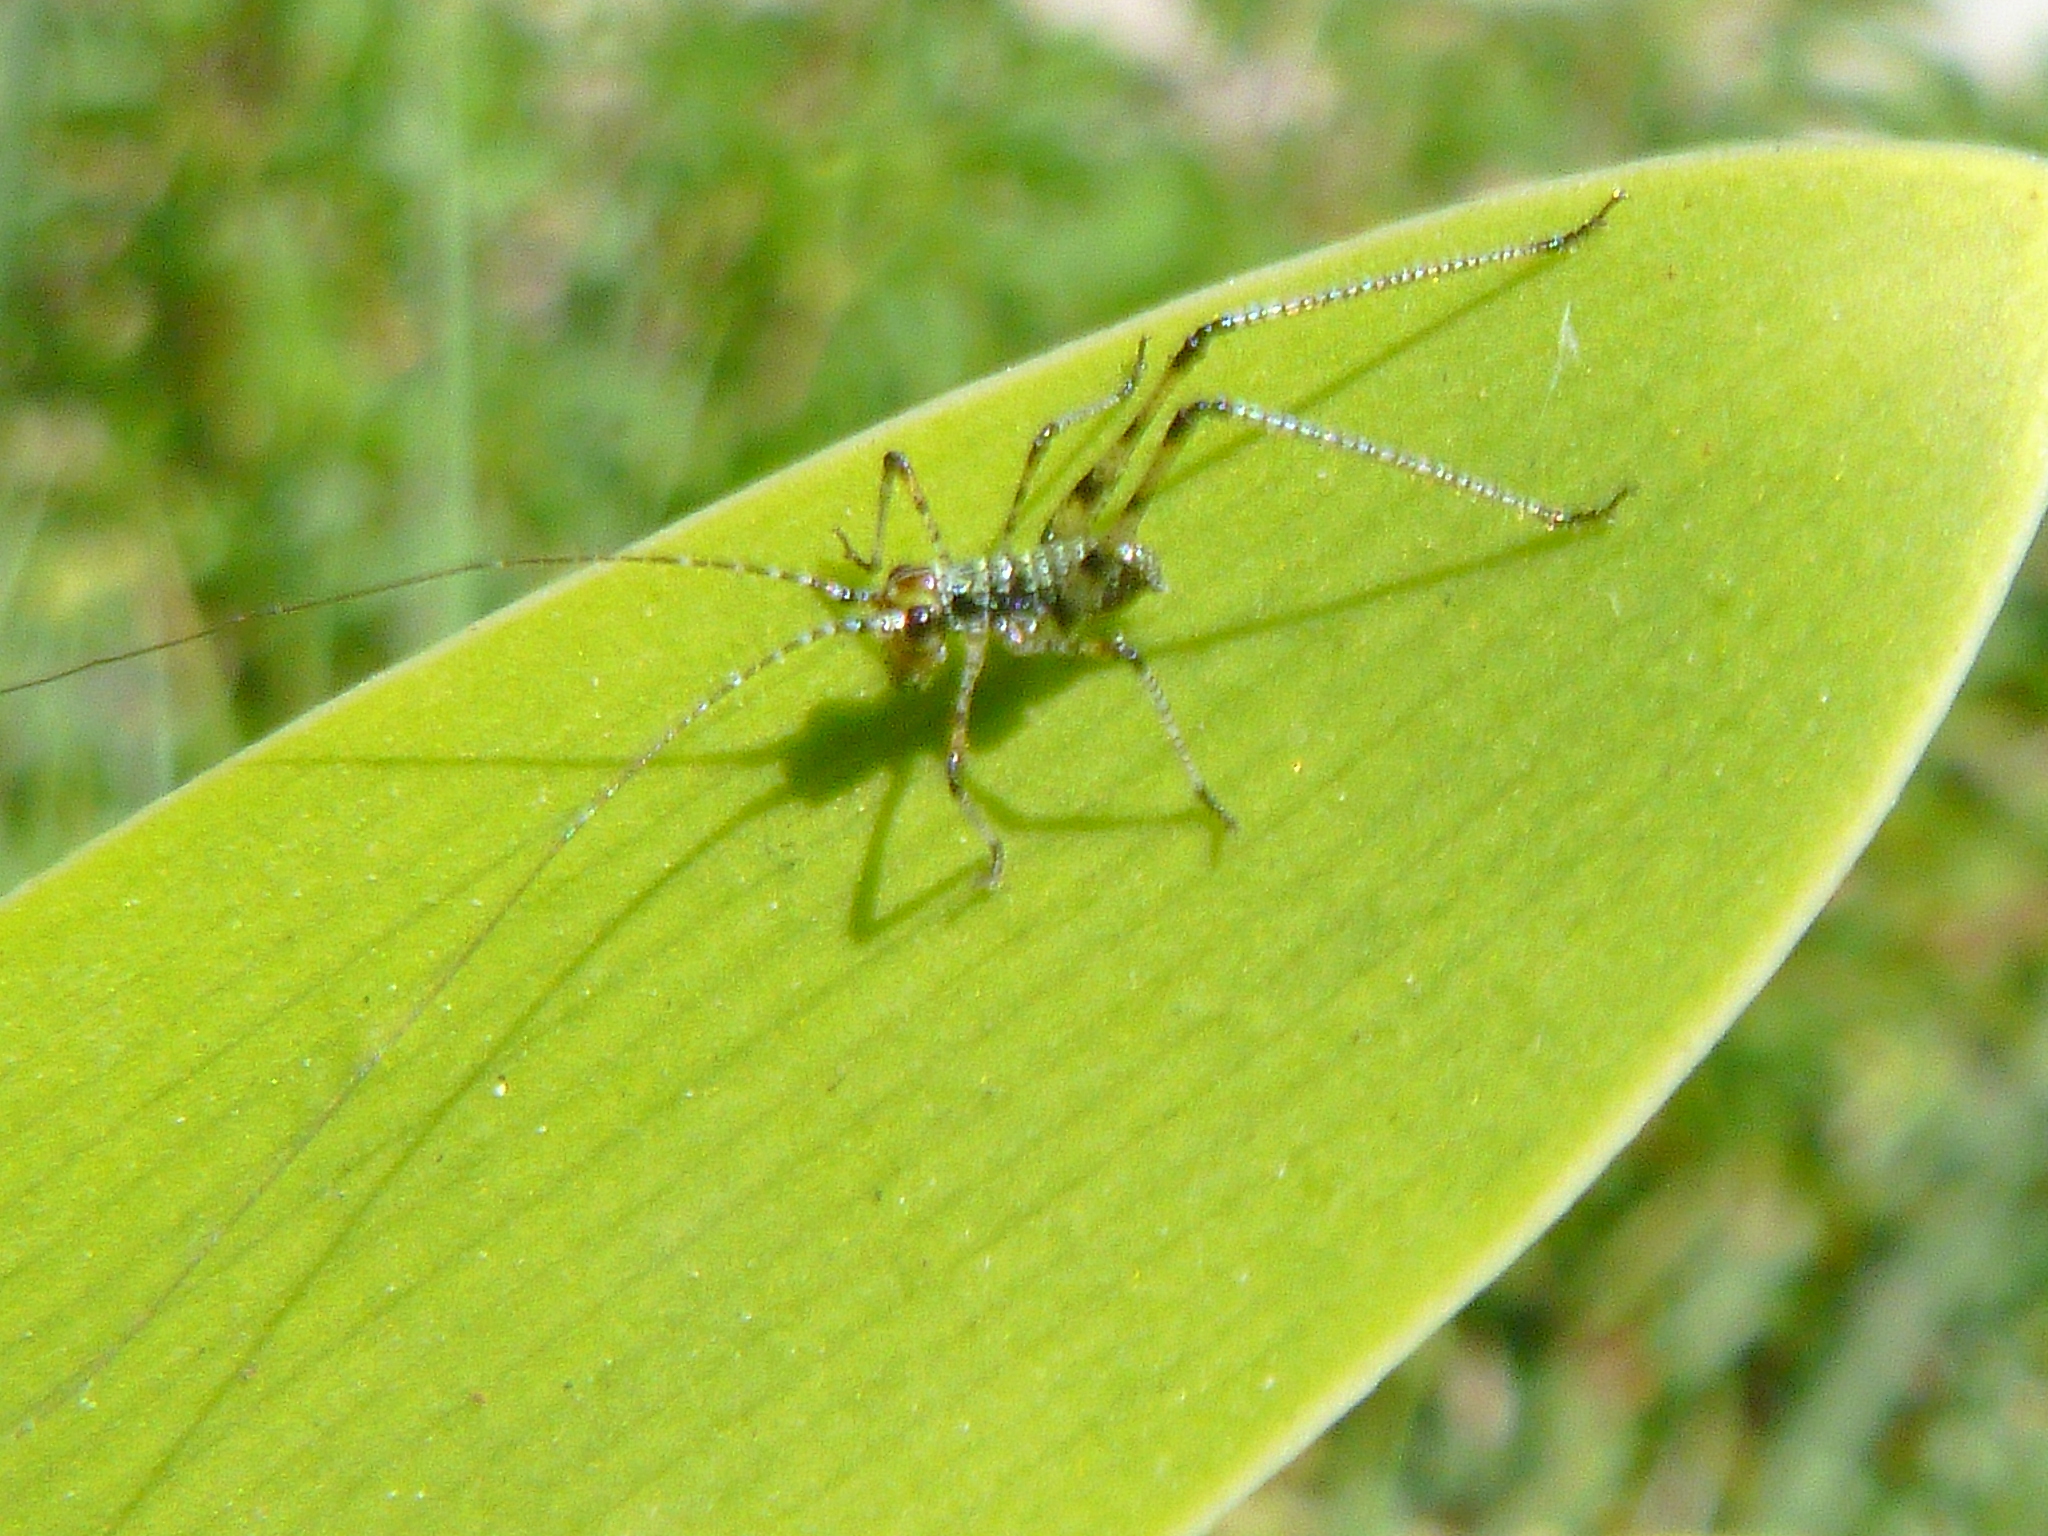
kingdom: Animalia
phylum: Arthropoda
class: Insecta
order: Orthoptera
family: Tettigoniidae
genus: Phaneroptera
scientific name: Phaneroptera nana
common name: Southern sickle bush-cricket
